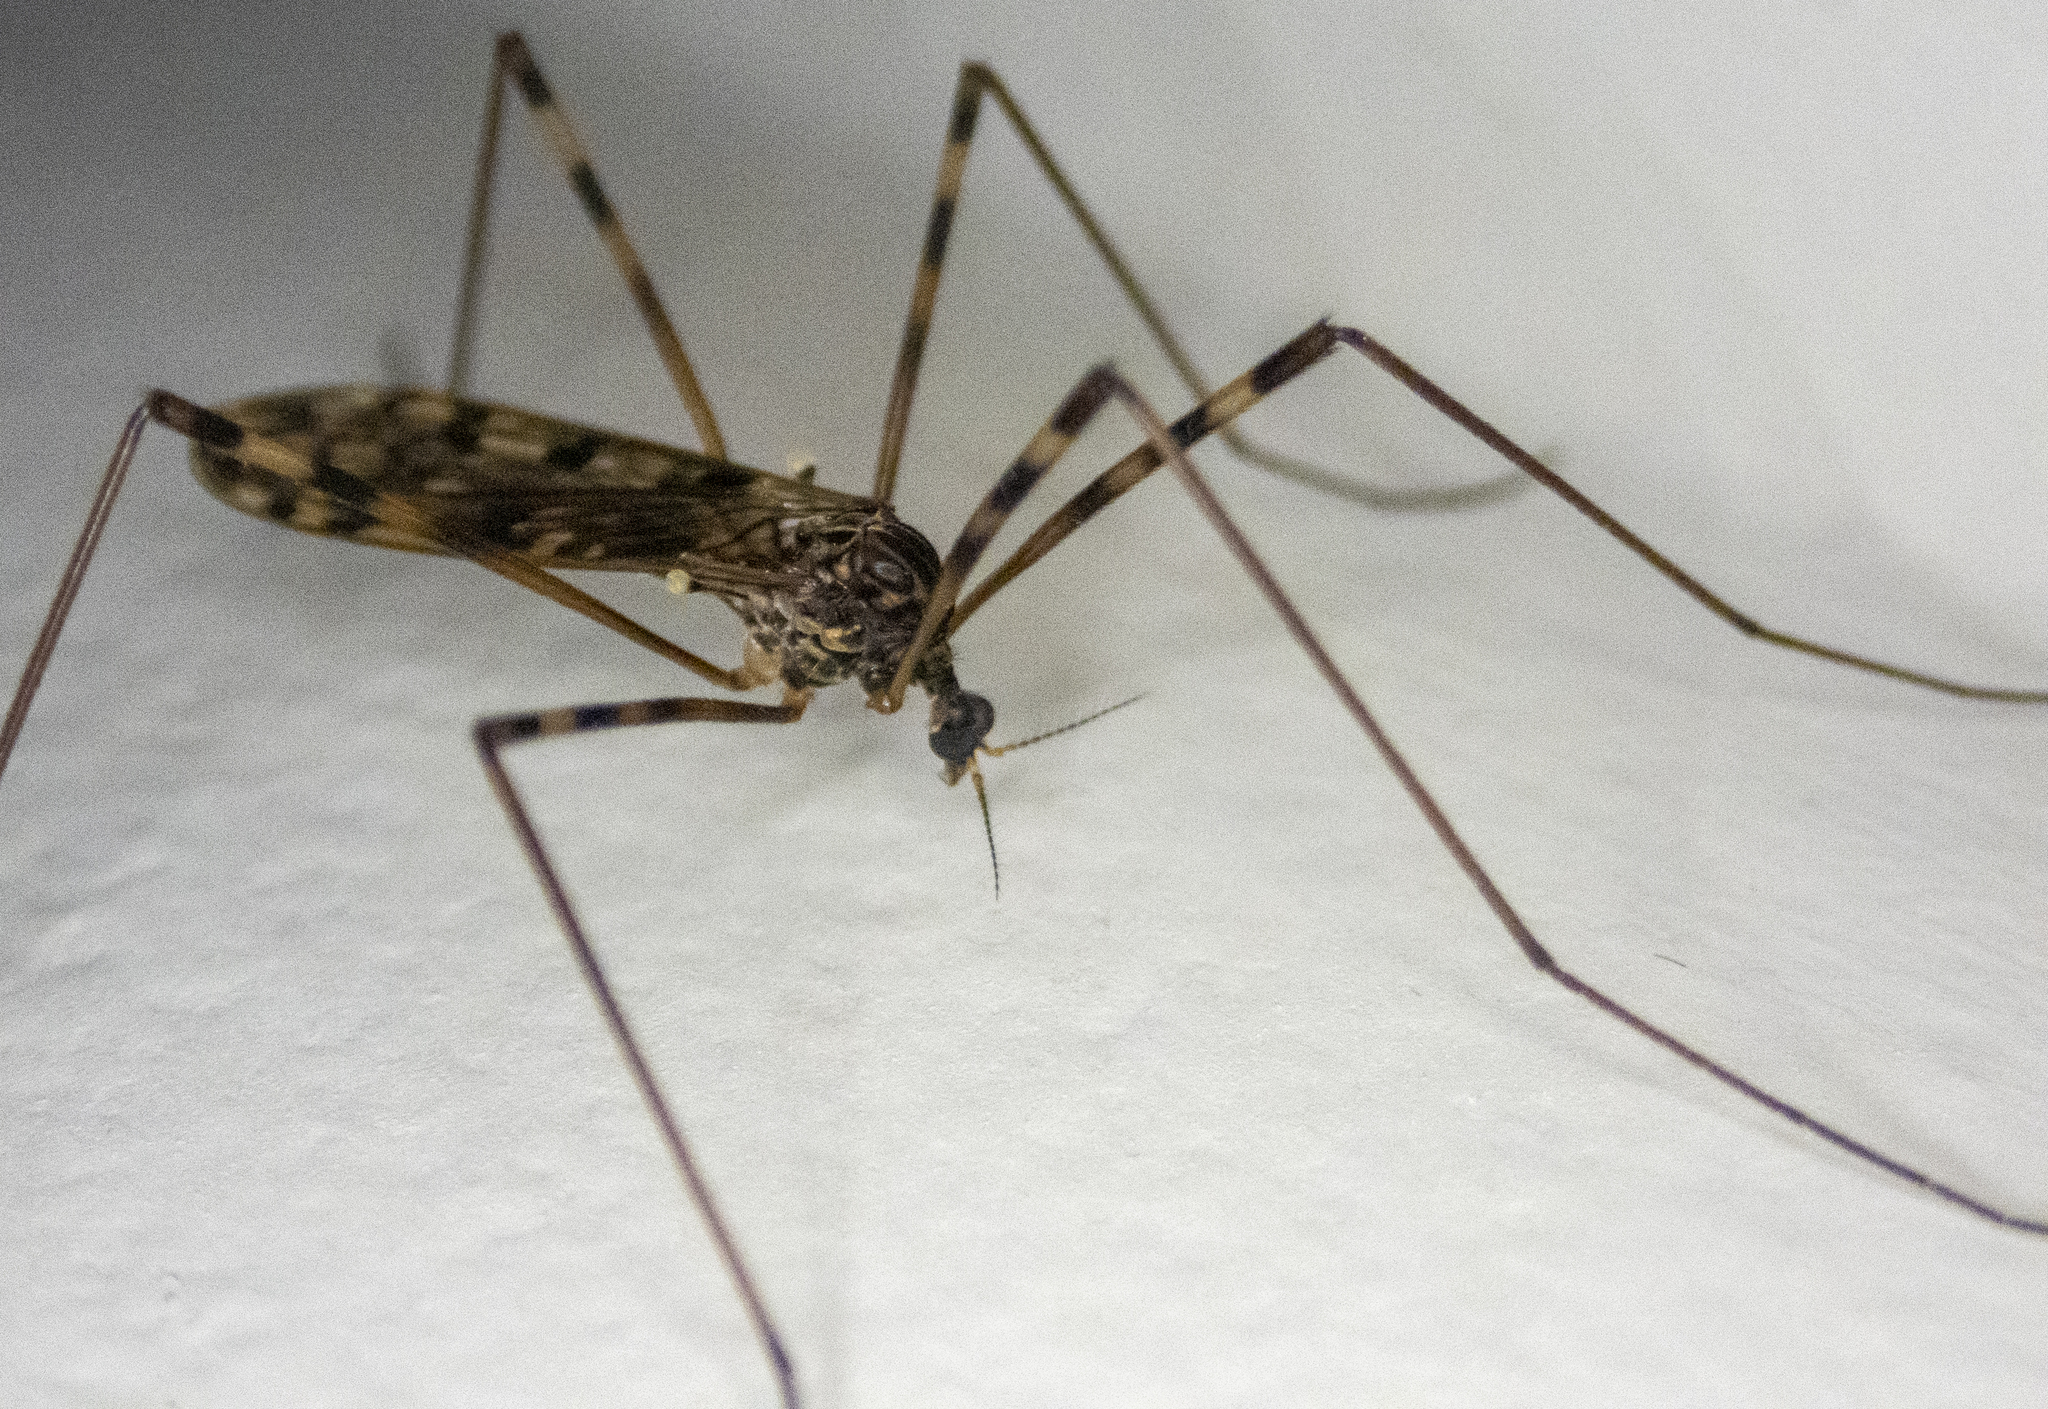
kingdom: Animalia
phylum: Arthropoda
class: Insecta
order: Diptera
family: Limoniidae
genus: Metalimnobia
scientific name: Metalimnobia immatura
